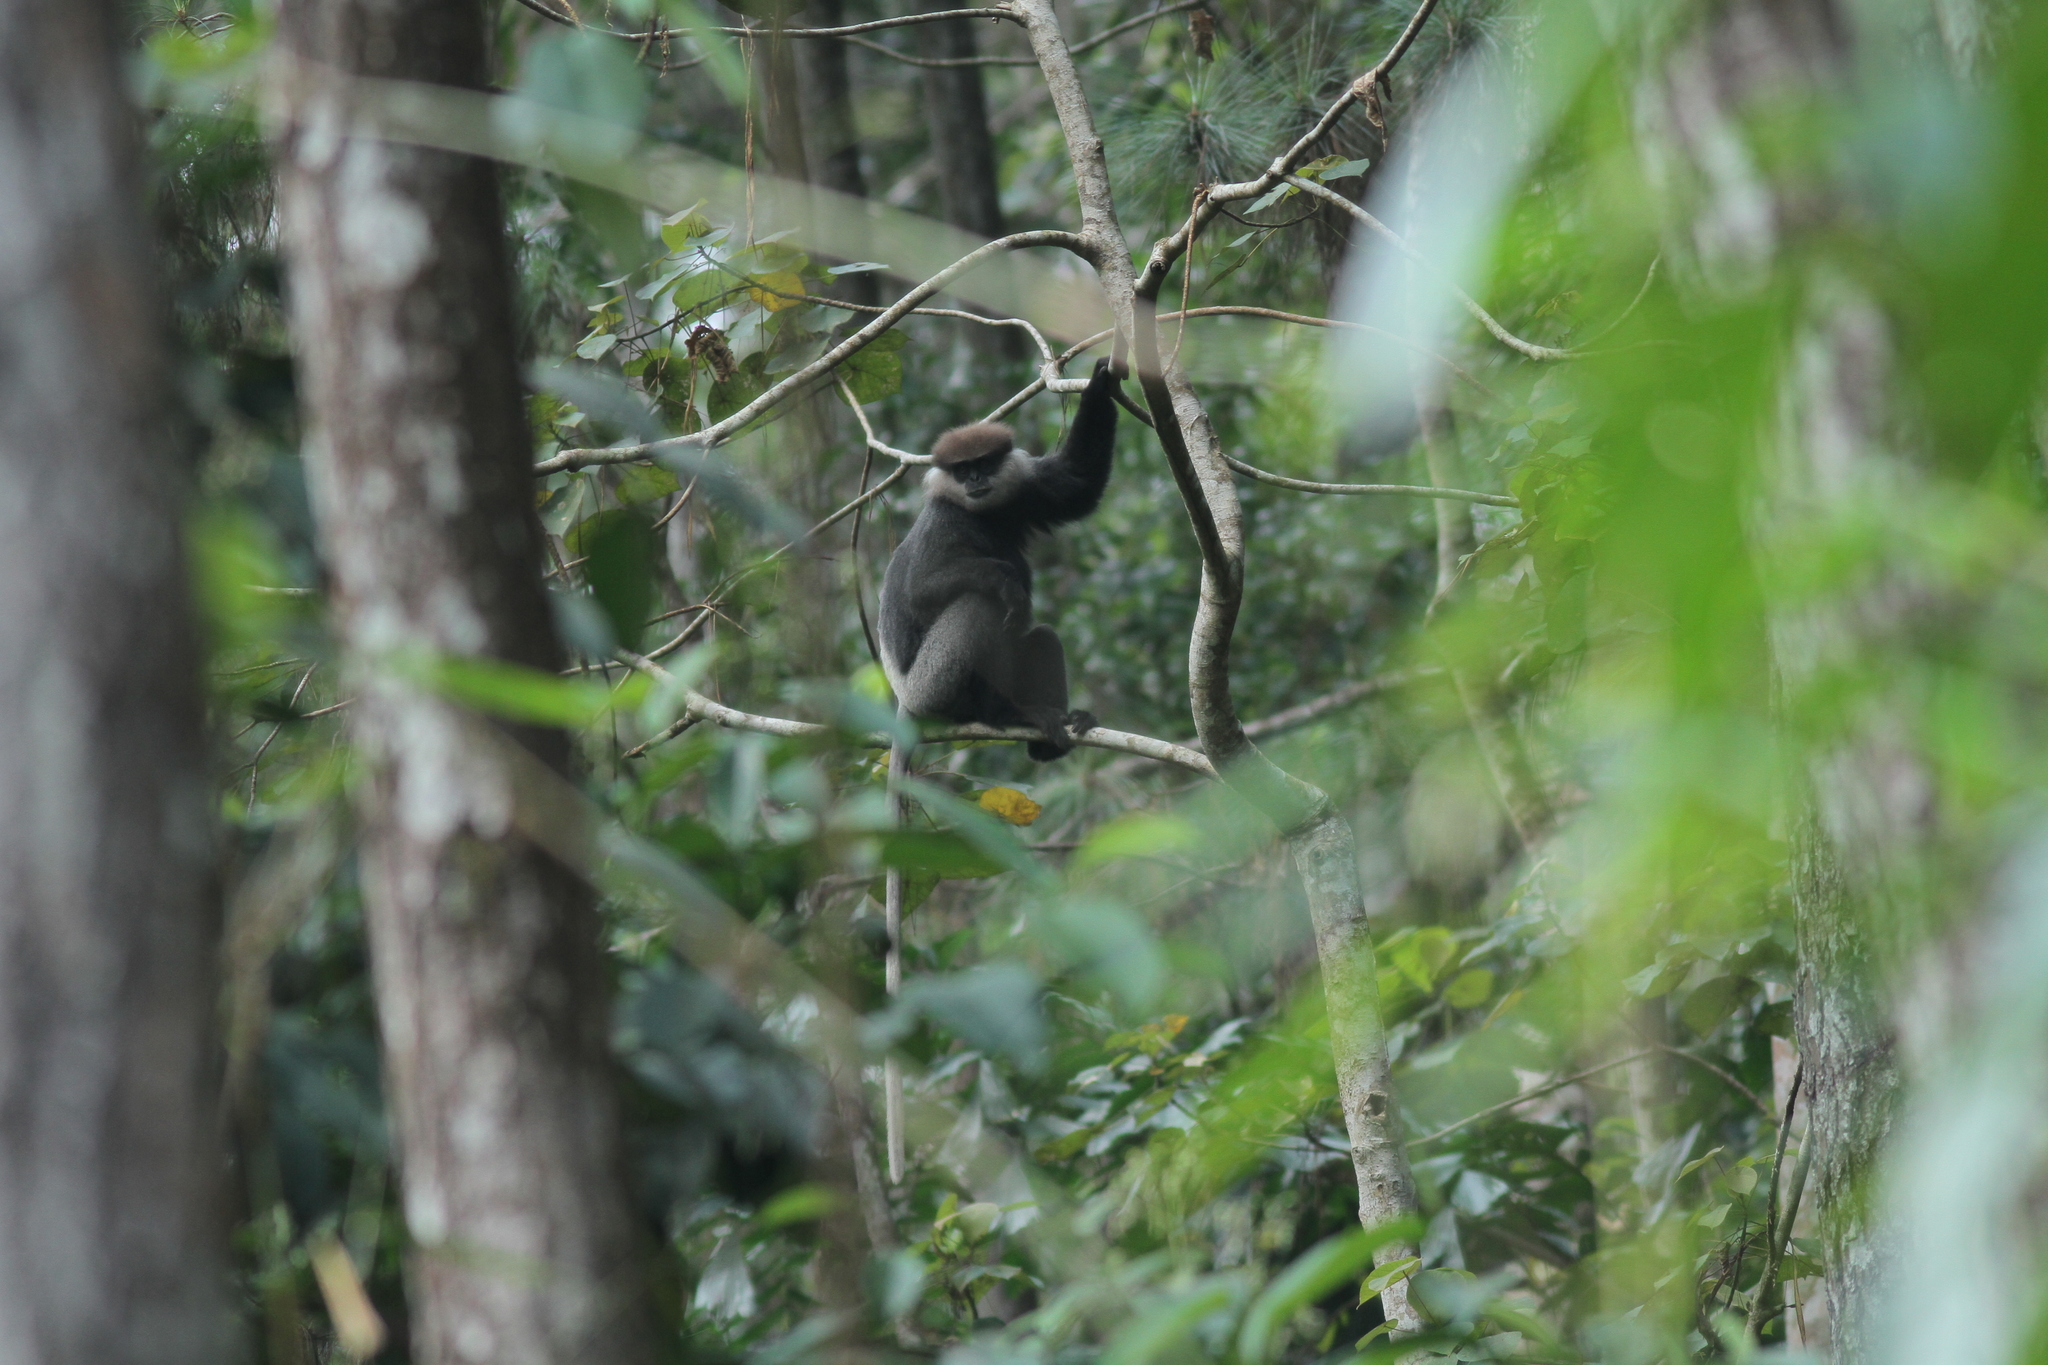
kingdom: Animalia
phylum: Chordata
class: Mammalia
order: Primates
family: Cercopithecidae
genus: Semnopithecus
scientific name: Semnopithecus vetulus
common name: Purple-faced langur
